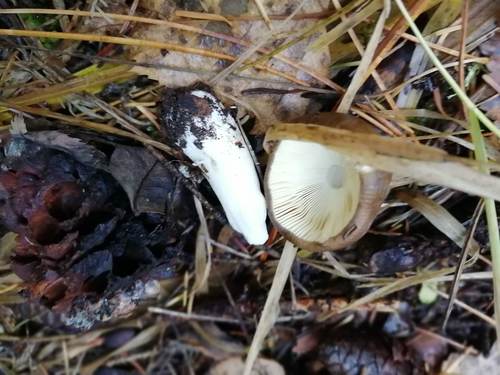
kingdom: Fungi
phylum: Basidiomycota
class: Agaricomycetes
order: Russulales
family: Russulaceae
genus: Russula
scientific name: Russula
